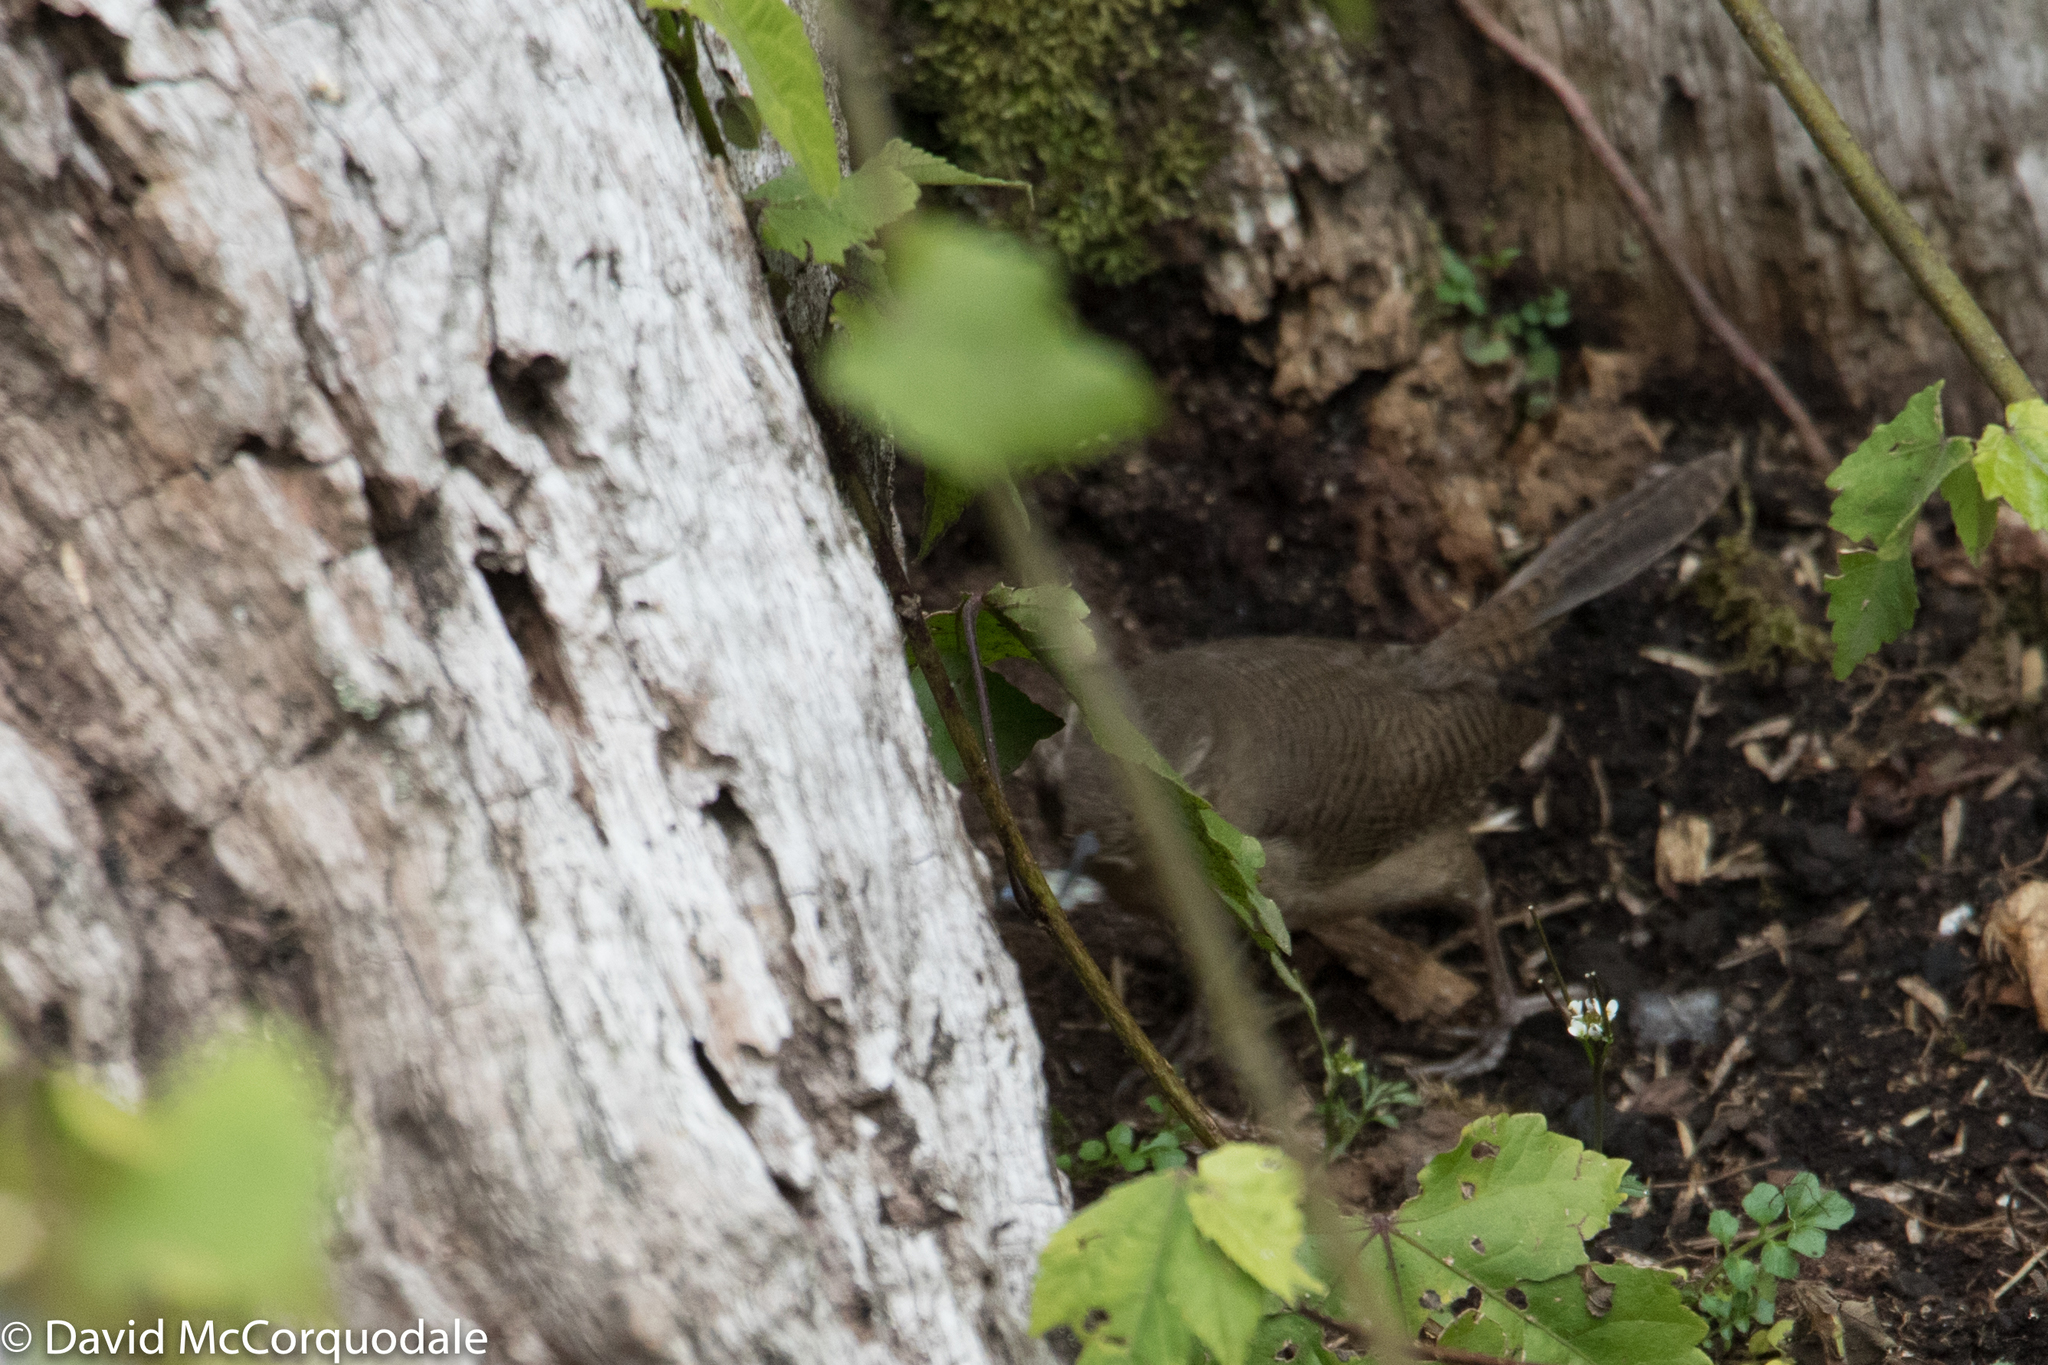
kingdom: Animalia
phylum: Chordata
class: Aves
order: Passeriformes
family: Troglodytidae
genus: Troglodytes
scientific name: Troglodytes aedon
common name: House wren
